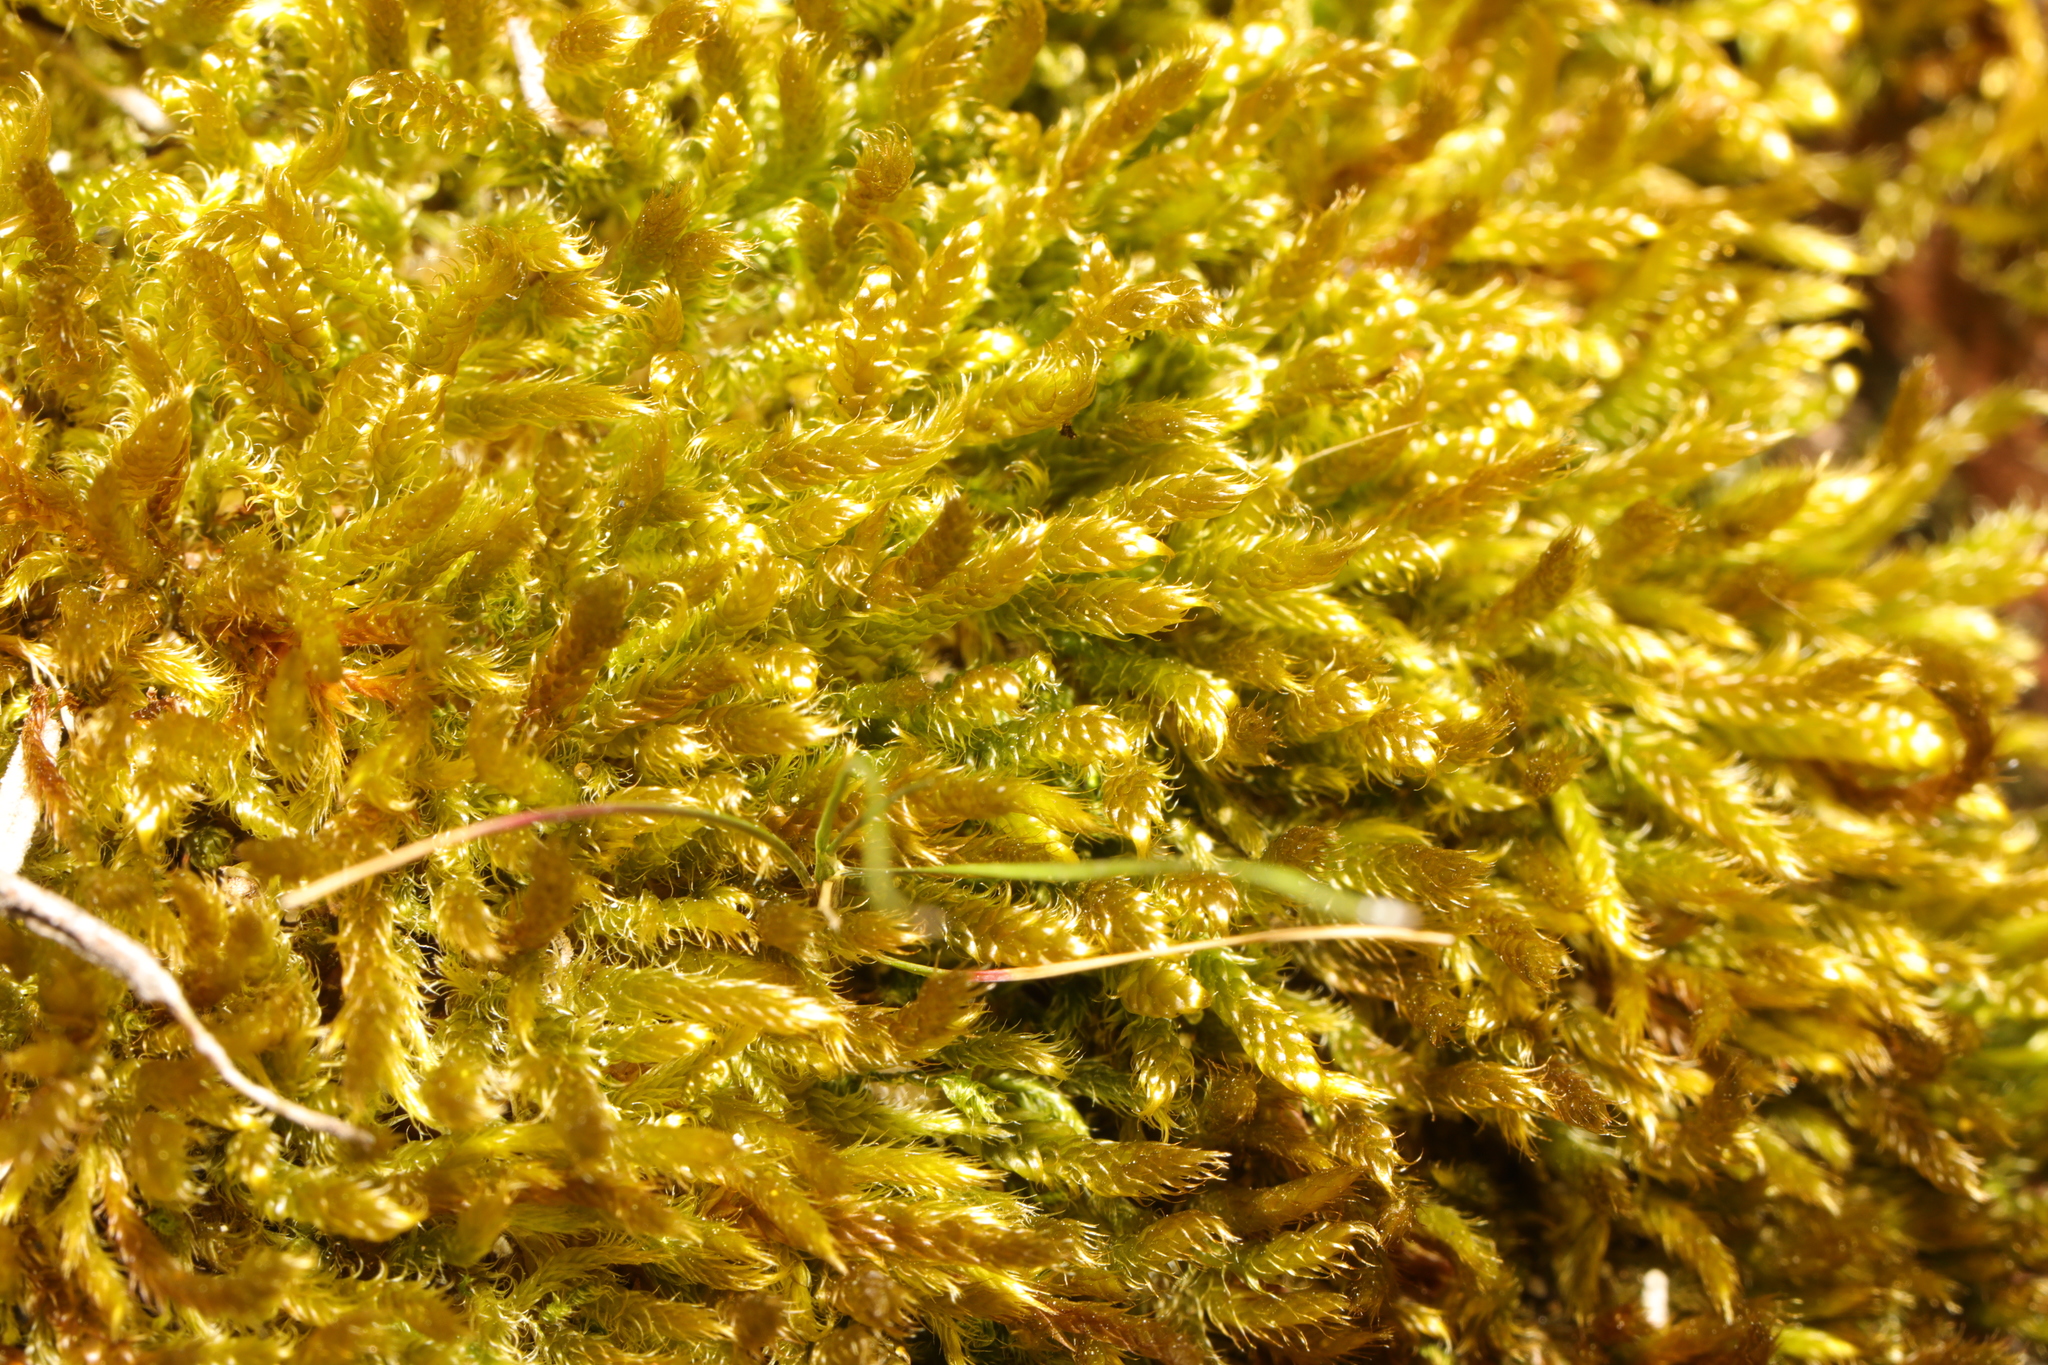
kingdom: Plantae
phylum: Bryophyta
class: Bryopsida
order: Hypnales
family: Hypnaceae
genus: Hypnum
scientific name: Hypnum cupressiforme
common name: Cypress-leaved plait-moss
